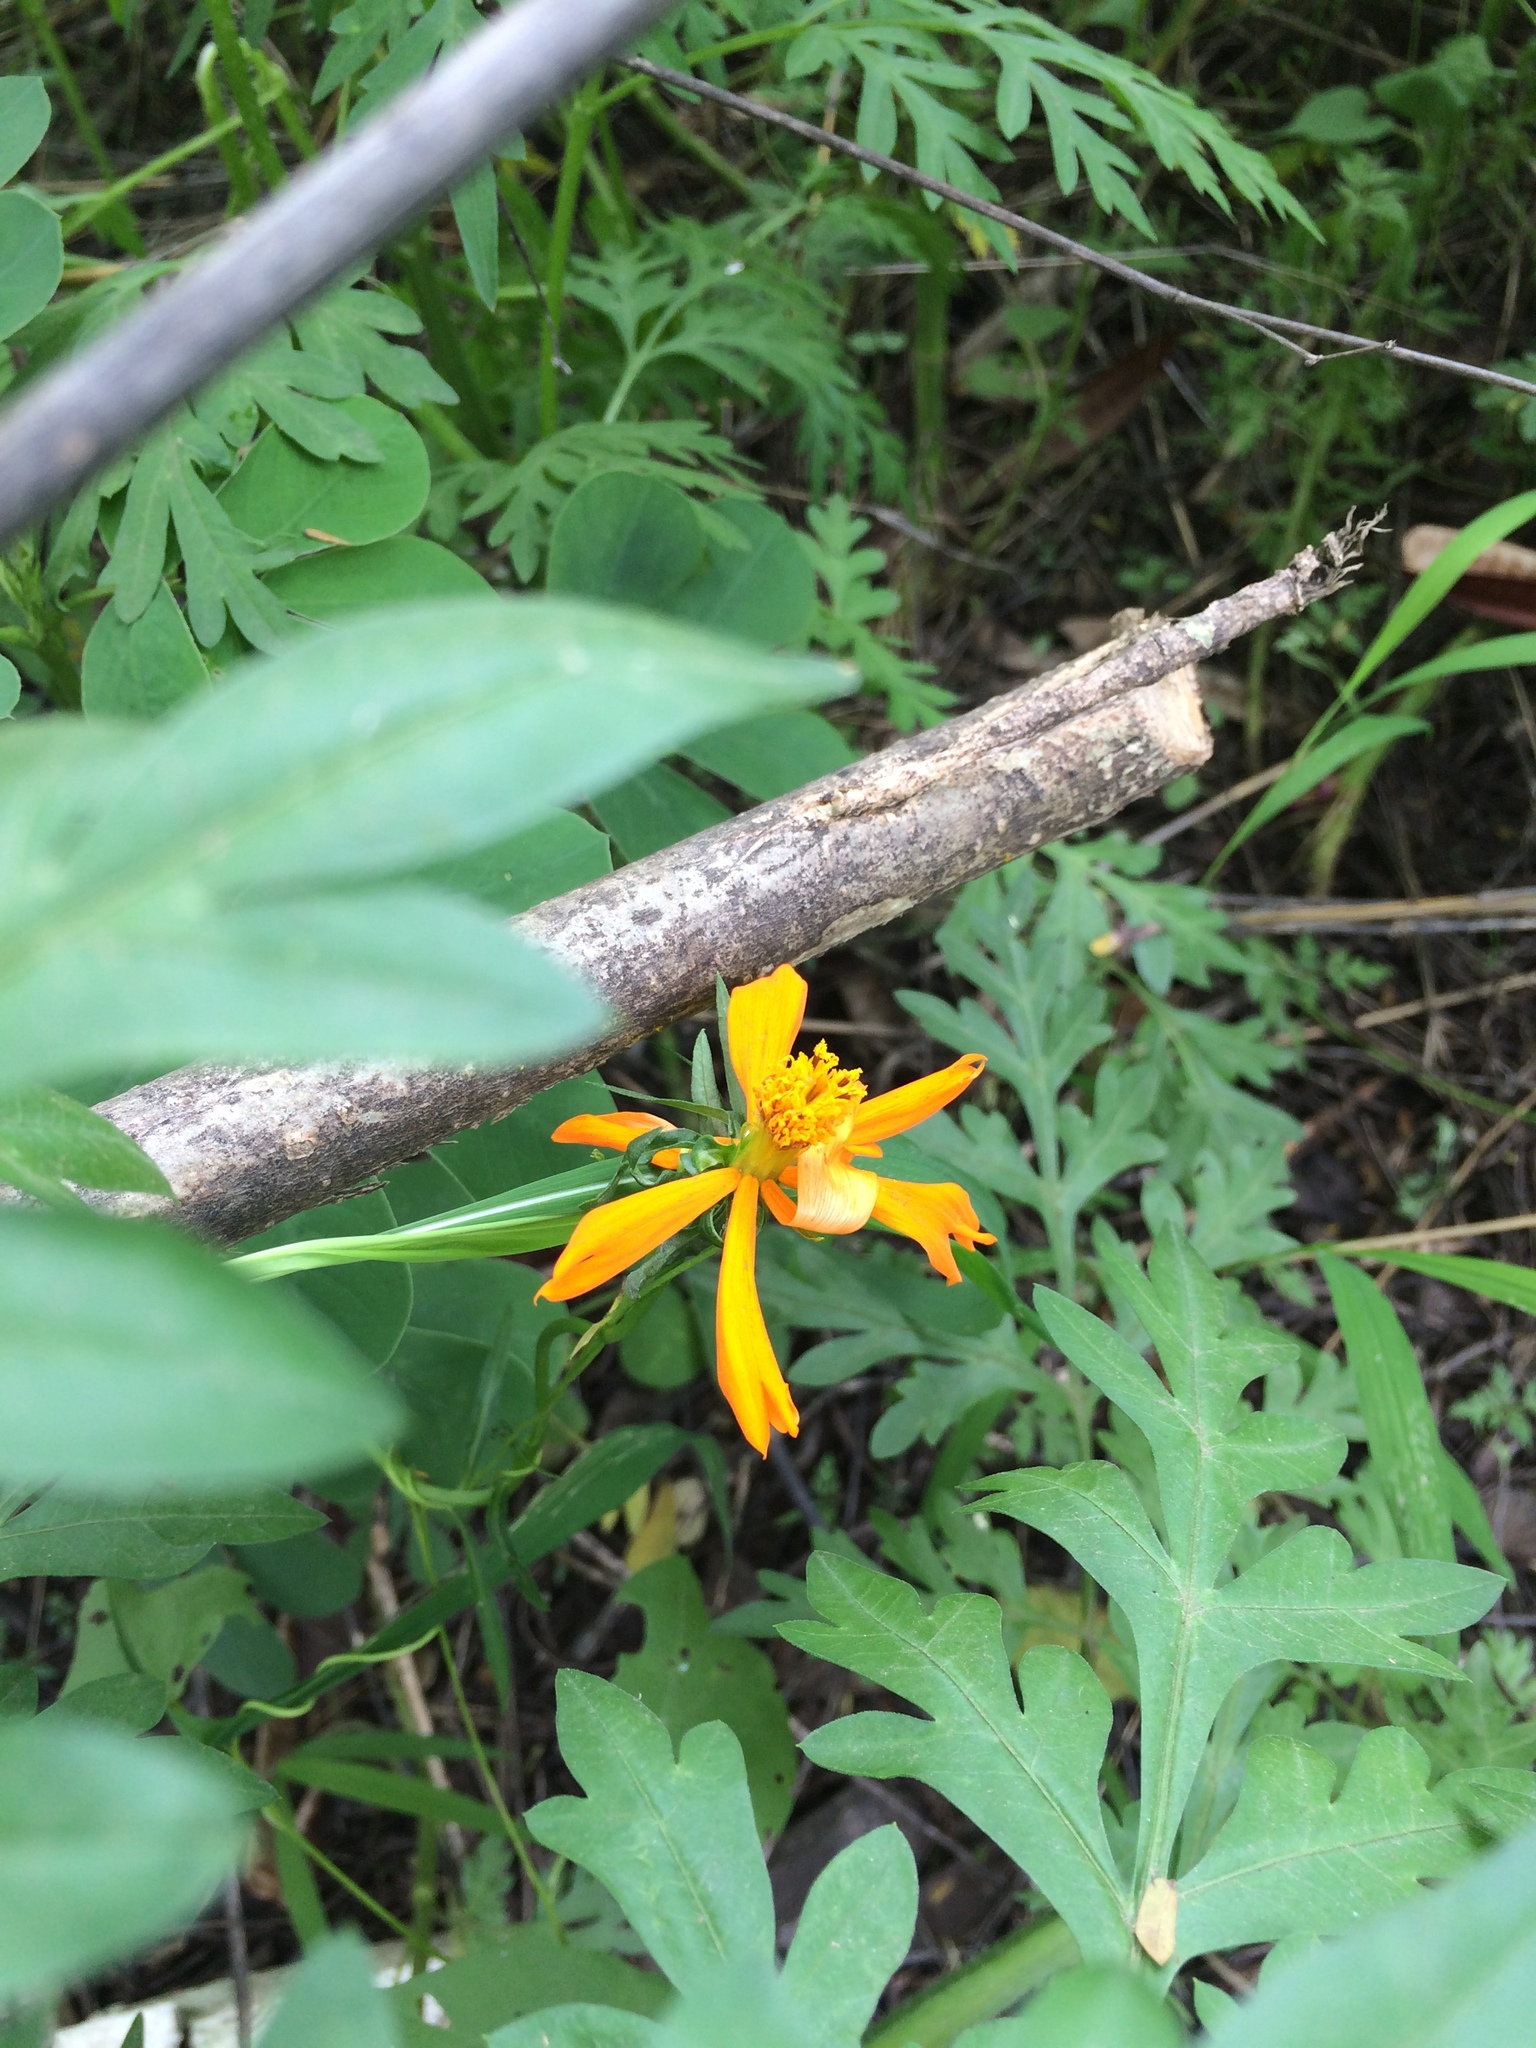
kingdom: Plantae
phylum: Tracheophyta
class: Magnoliopsida
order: Asterales
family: Asteraceae
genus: Cosmos
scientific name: Cosmos sulphureus
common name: Sulphur cosmos
